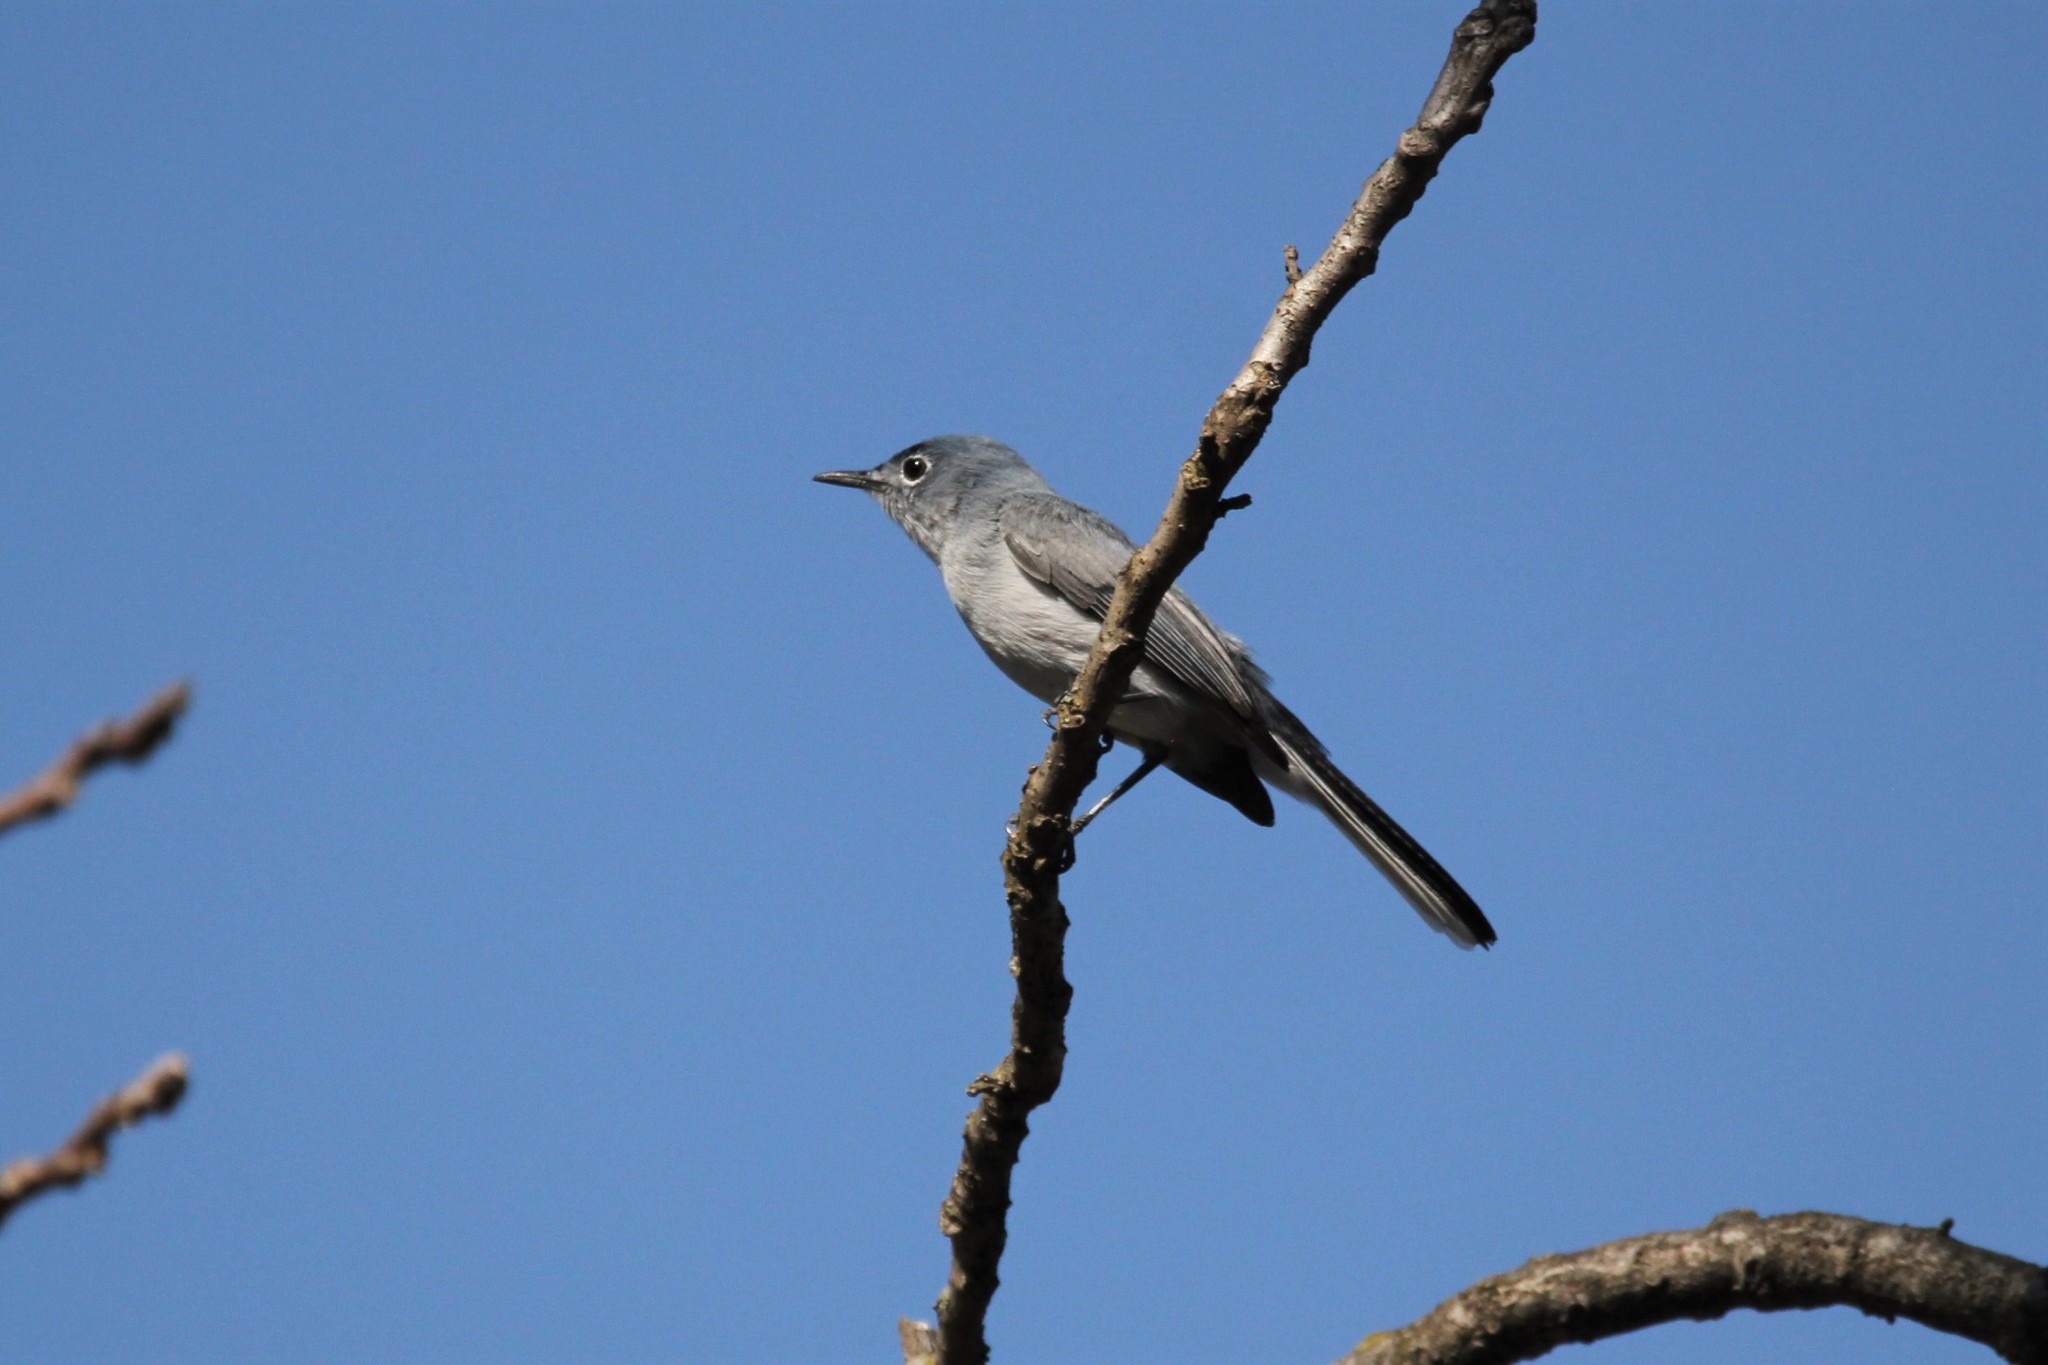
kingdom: Animalia
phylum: Chordata
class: Aves
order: Passeriformes
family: Polioptilidae
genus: Polioptila
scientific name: Polioptila caerulea
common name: Blue-gray gnatcatcher
